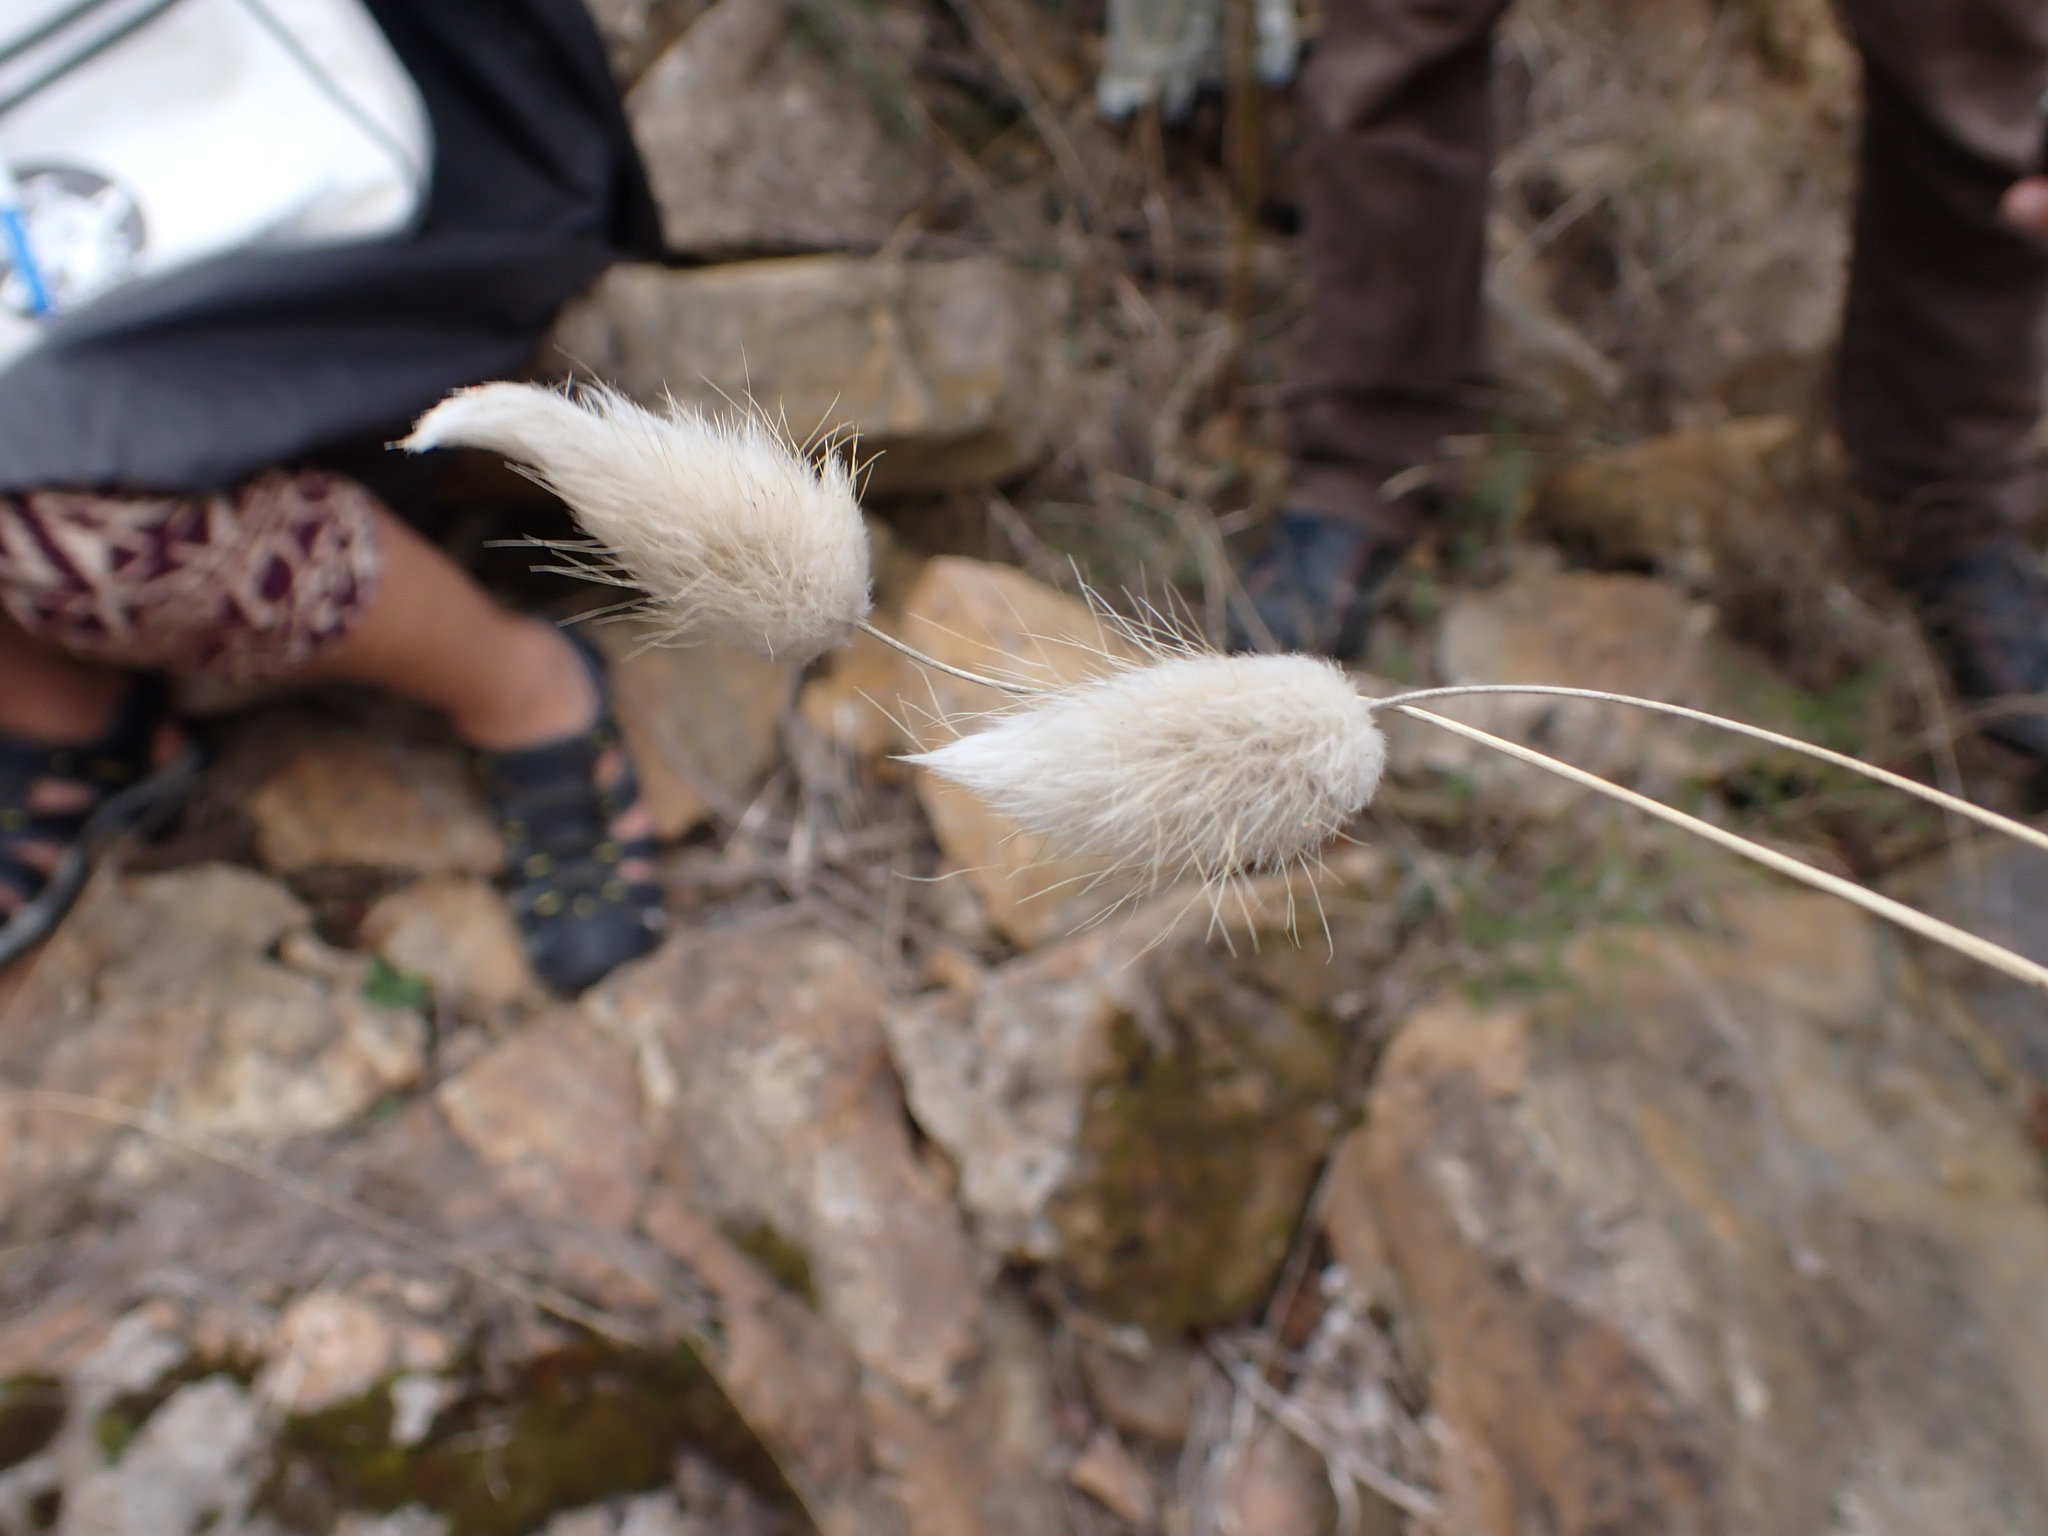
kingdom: Plantae
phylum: Tracheophyta
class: Liliopsida
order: Poales
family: Poaceae
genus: Lagurus
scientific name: Lagurus ovatus
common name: Hare's-tail
